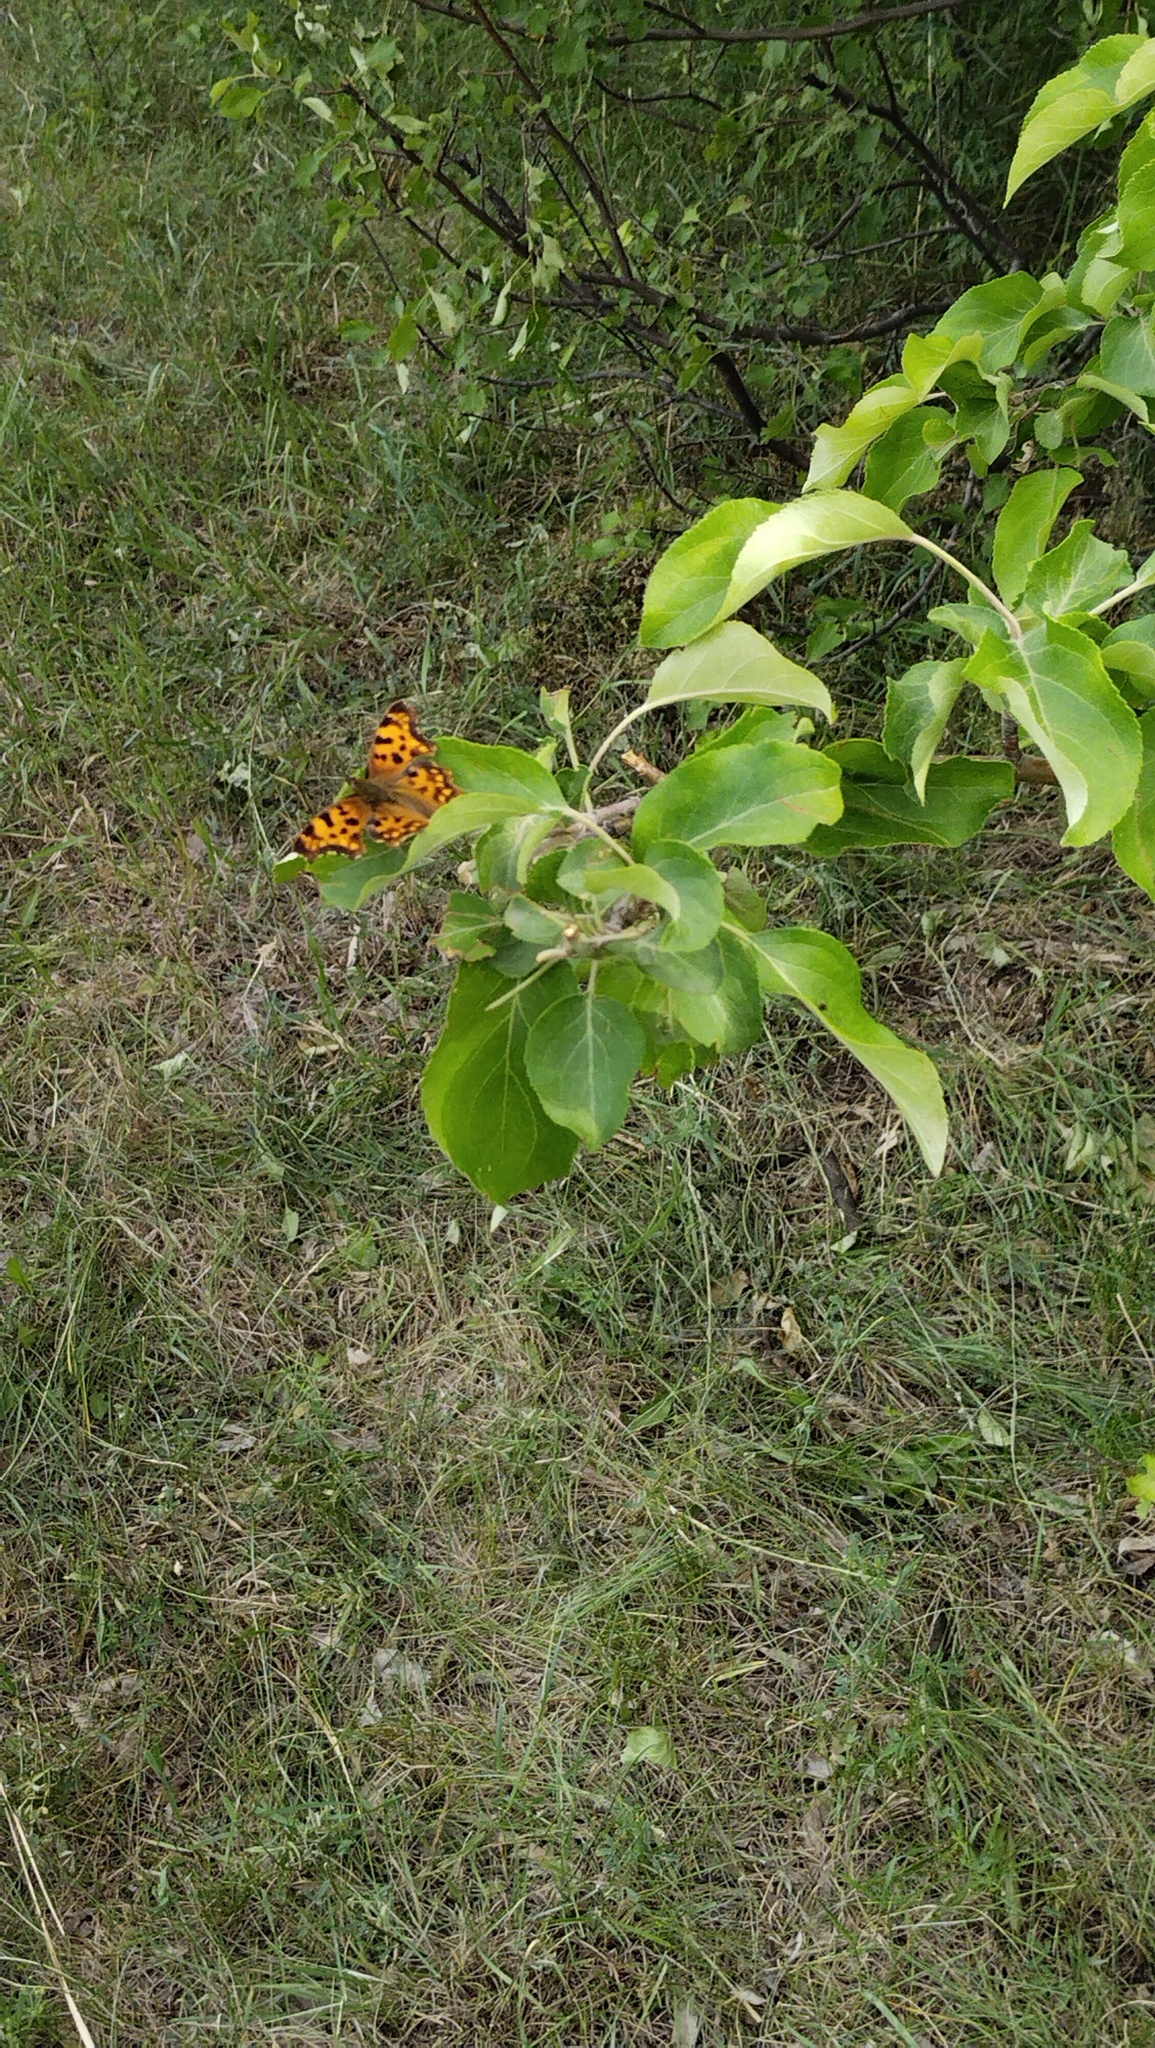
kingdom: Animalia
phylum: Arthropoda
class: Insecta
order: Lepidoptera
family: Nymphalidae
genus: Polygonia
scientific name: Polygonia c-album
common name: Comma
